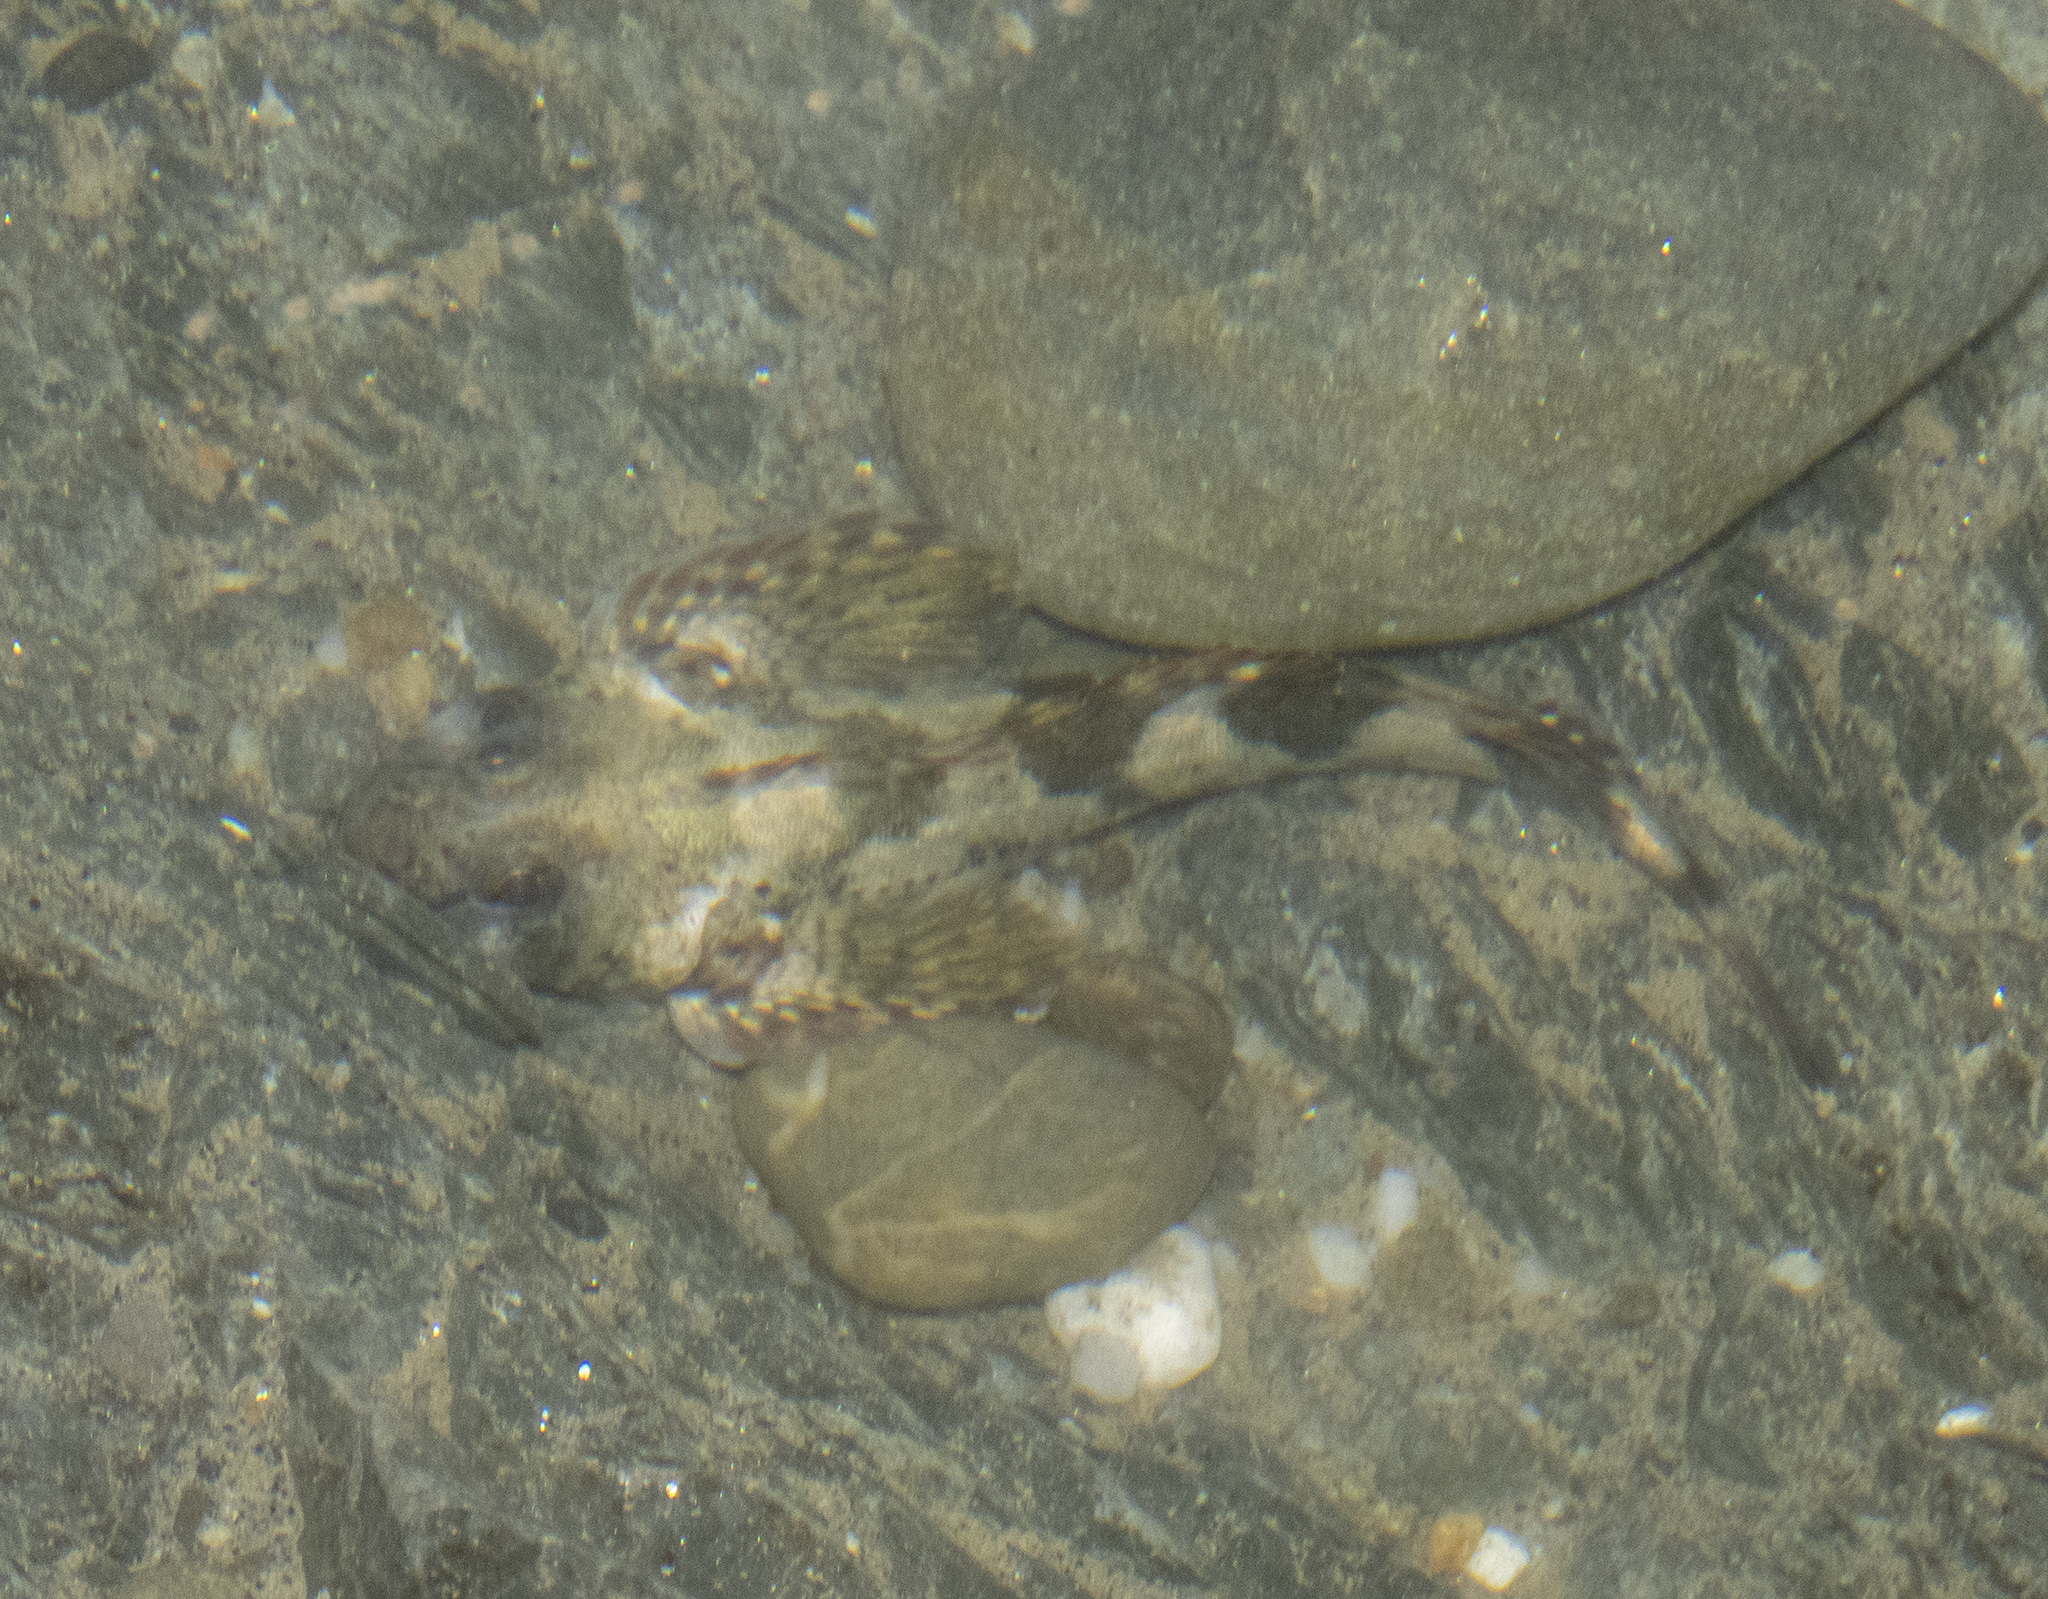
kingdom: Animalia
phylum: Chordata
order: Perciformes
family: Tripterygiidae
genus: Blennodon
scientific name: Blennodon dorsalis
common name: Giant triplefin
